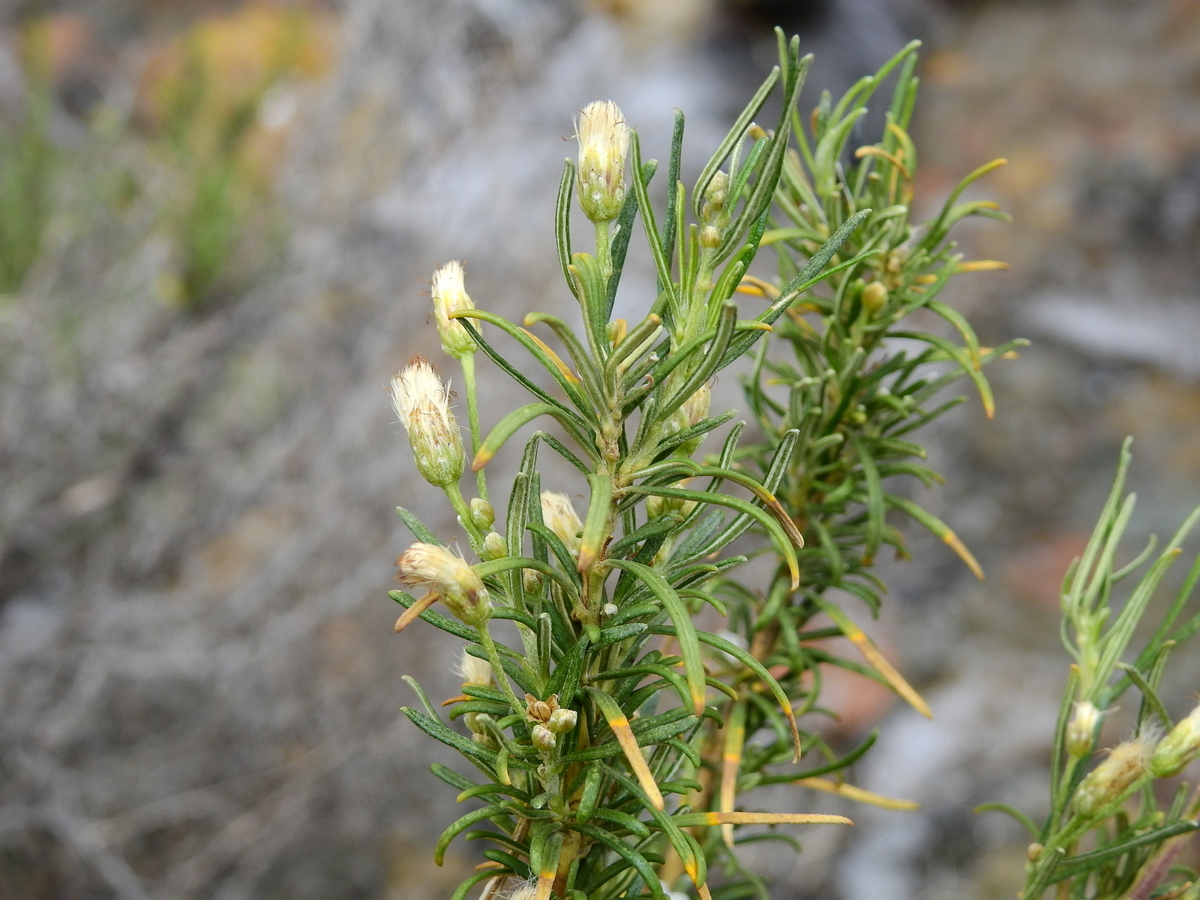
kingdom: Plantae
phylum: Tracheophyta
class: Magnoliopsida
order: Asterales
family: Asteraceae
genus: Baccharis
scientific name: Baccharis grisebachii
